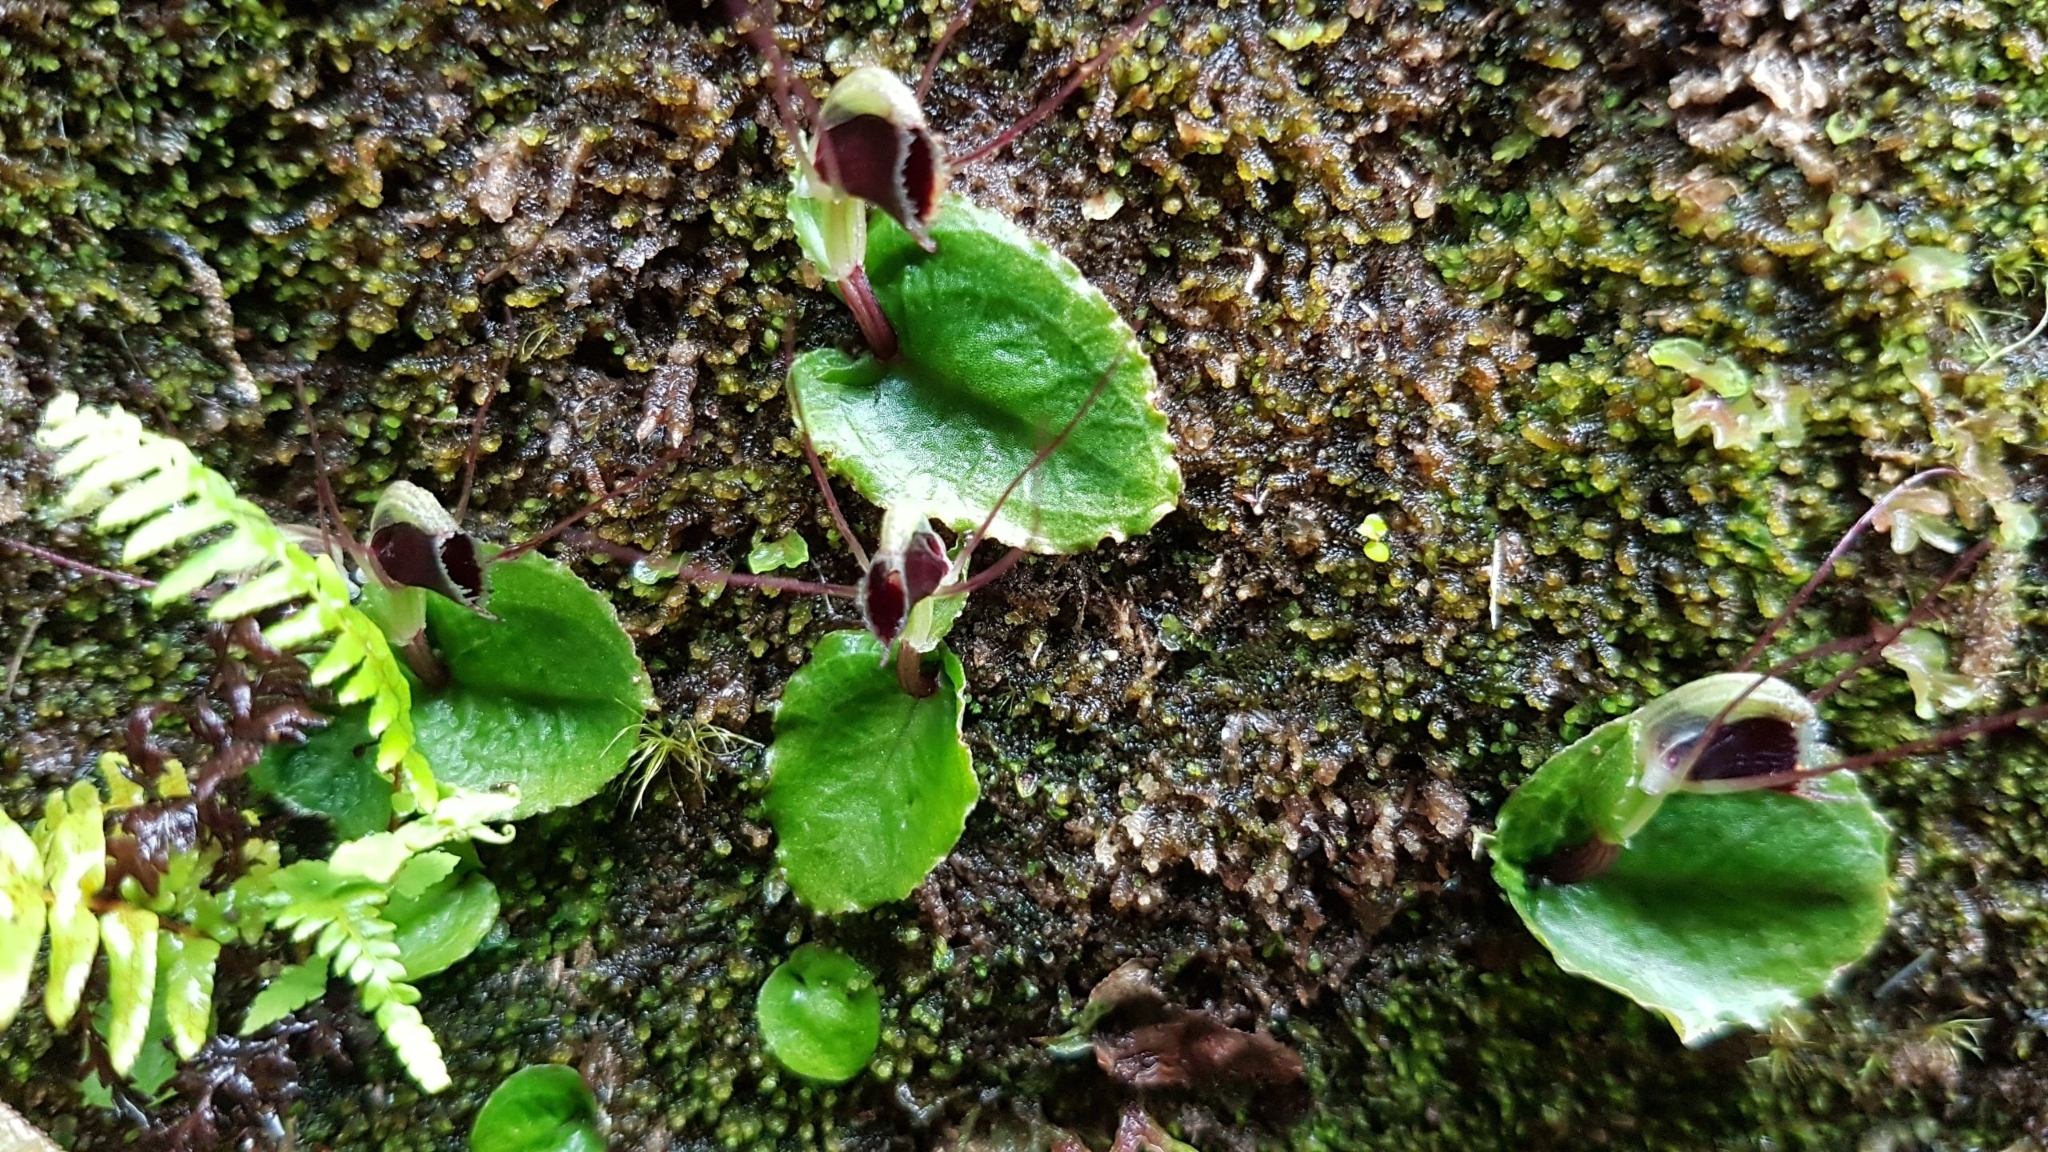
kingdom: Plantae
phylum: Tracheophyta
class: Liliopsida
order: Asparagales
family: Orchidaceae
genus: Corybas
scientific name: Corybas oblongus
